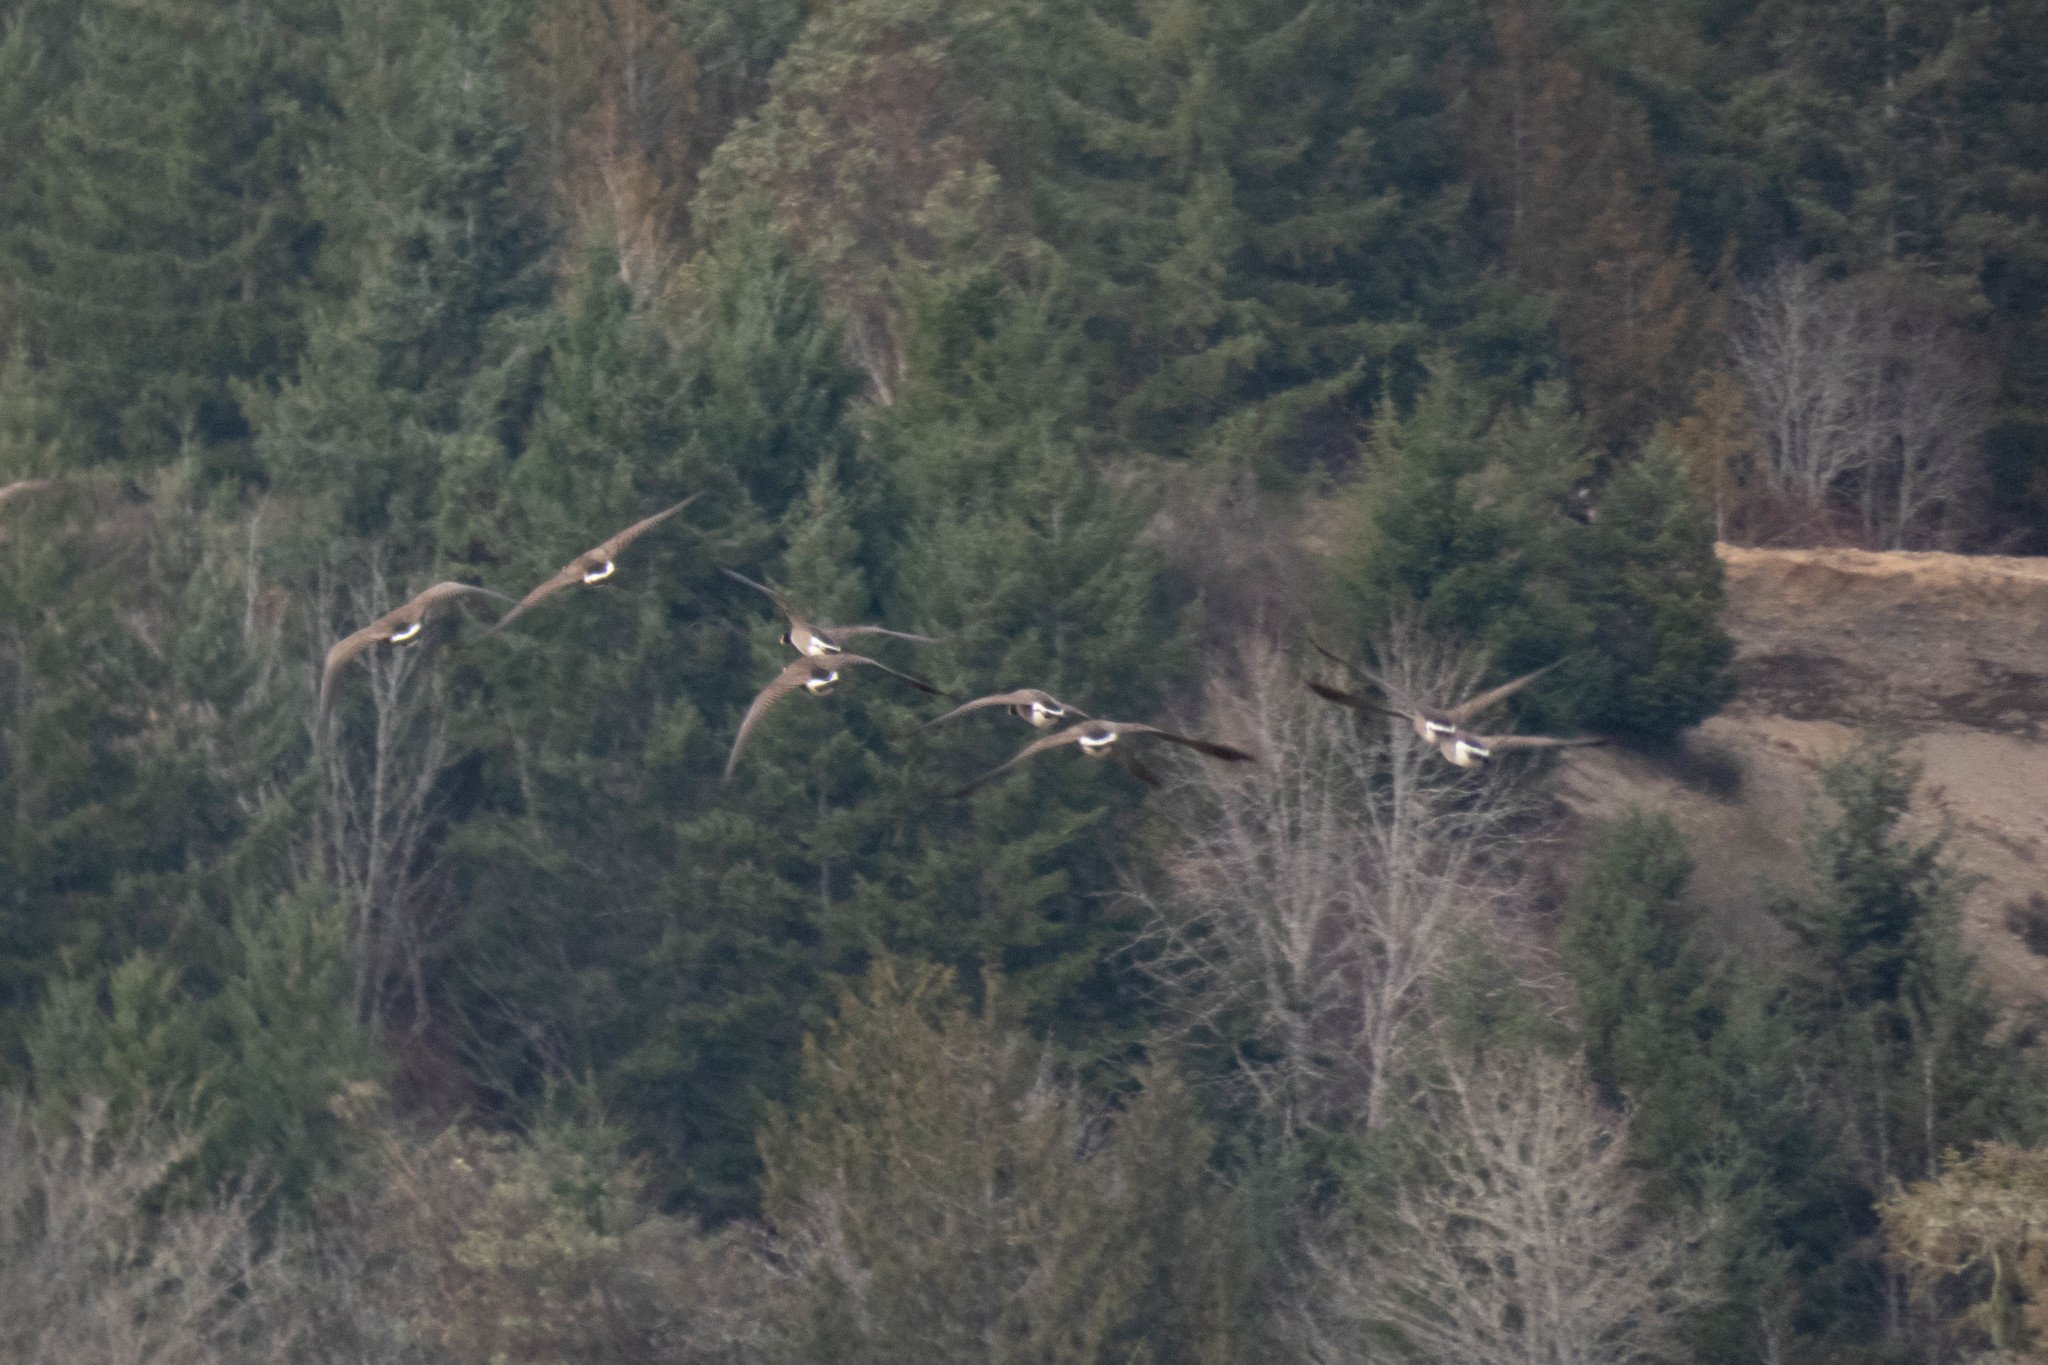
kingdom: Animalia
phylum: Chordata
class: Aves
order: Anseriformes
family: Anatidae
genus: Branta
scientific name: Branta canadensis
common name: Canada goose
